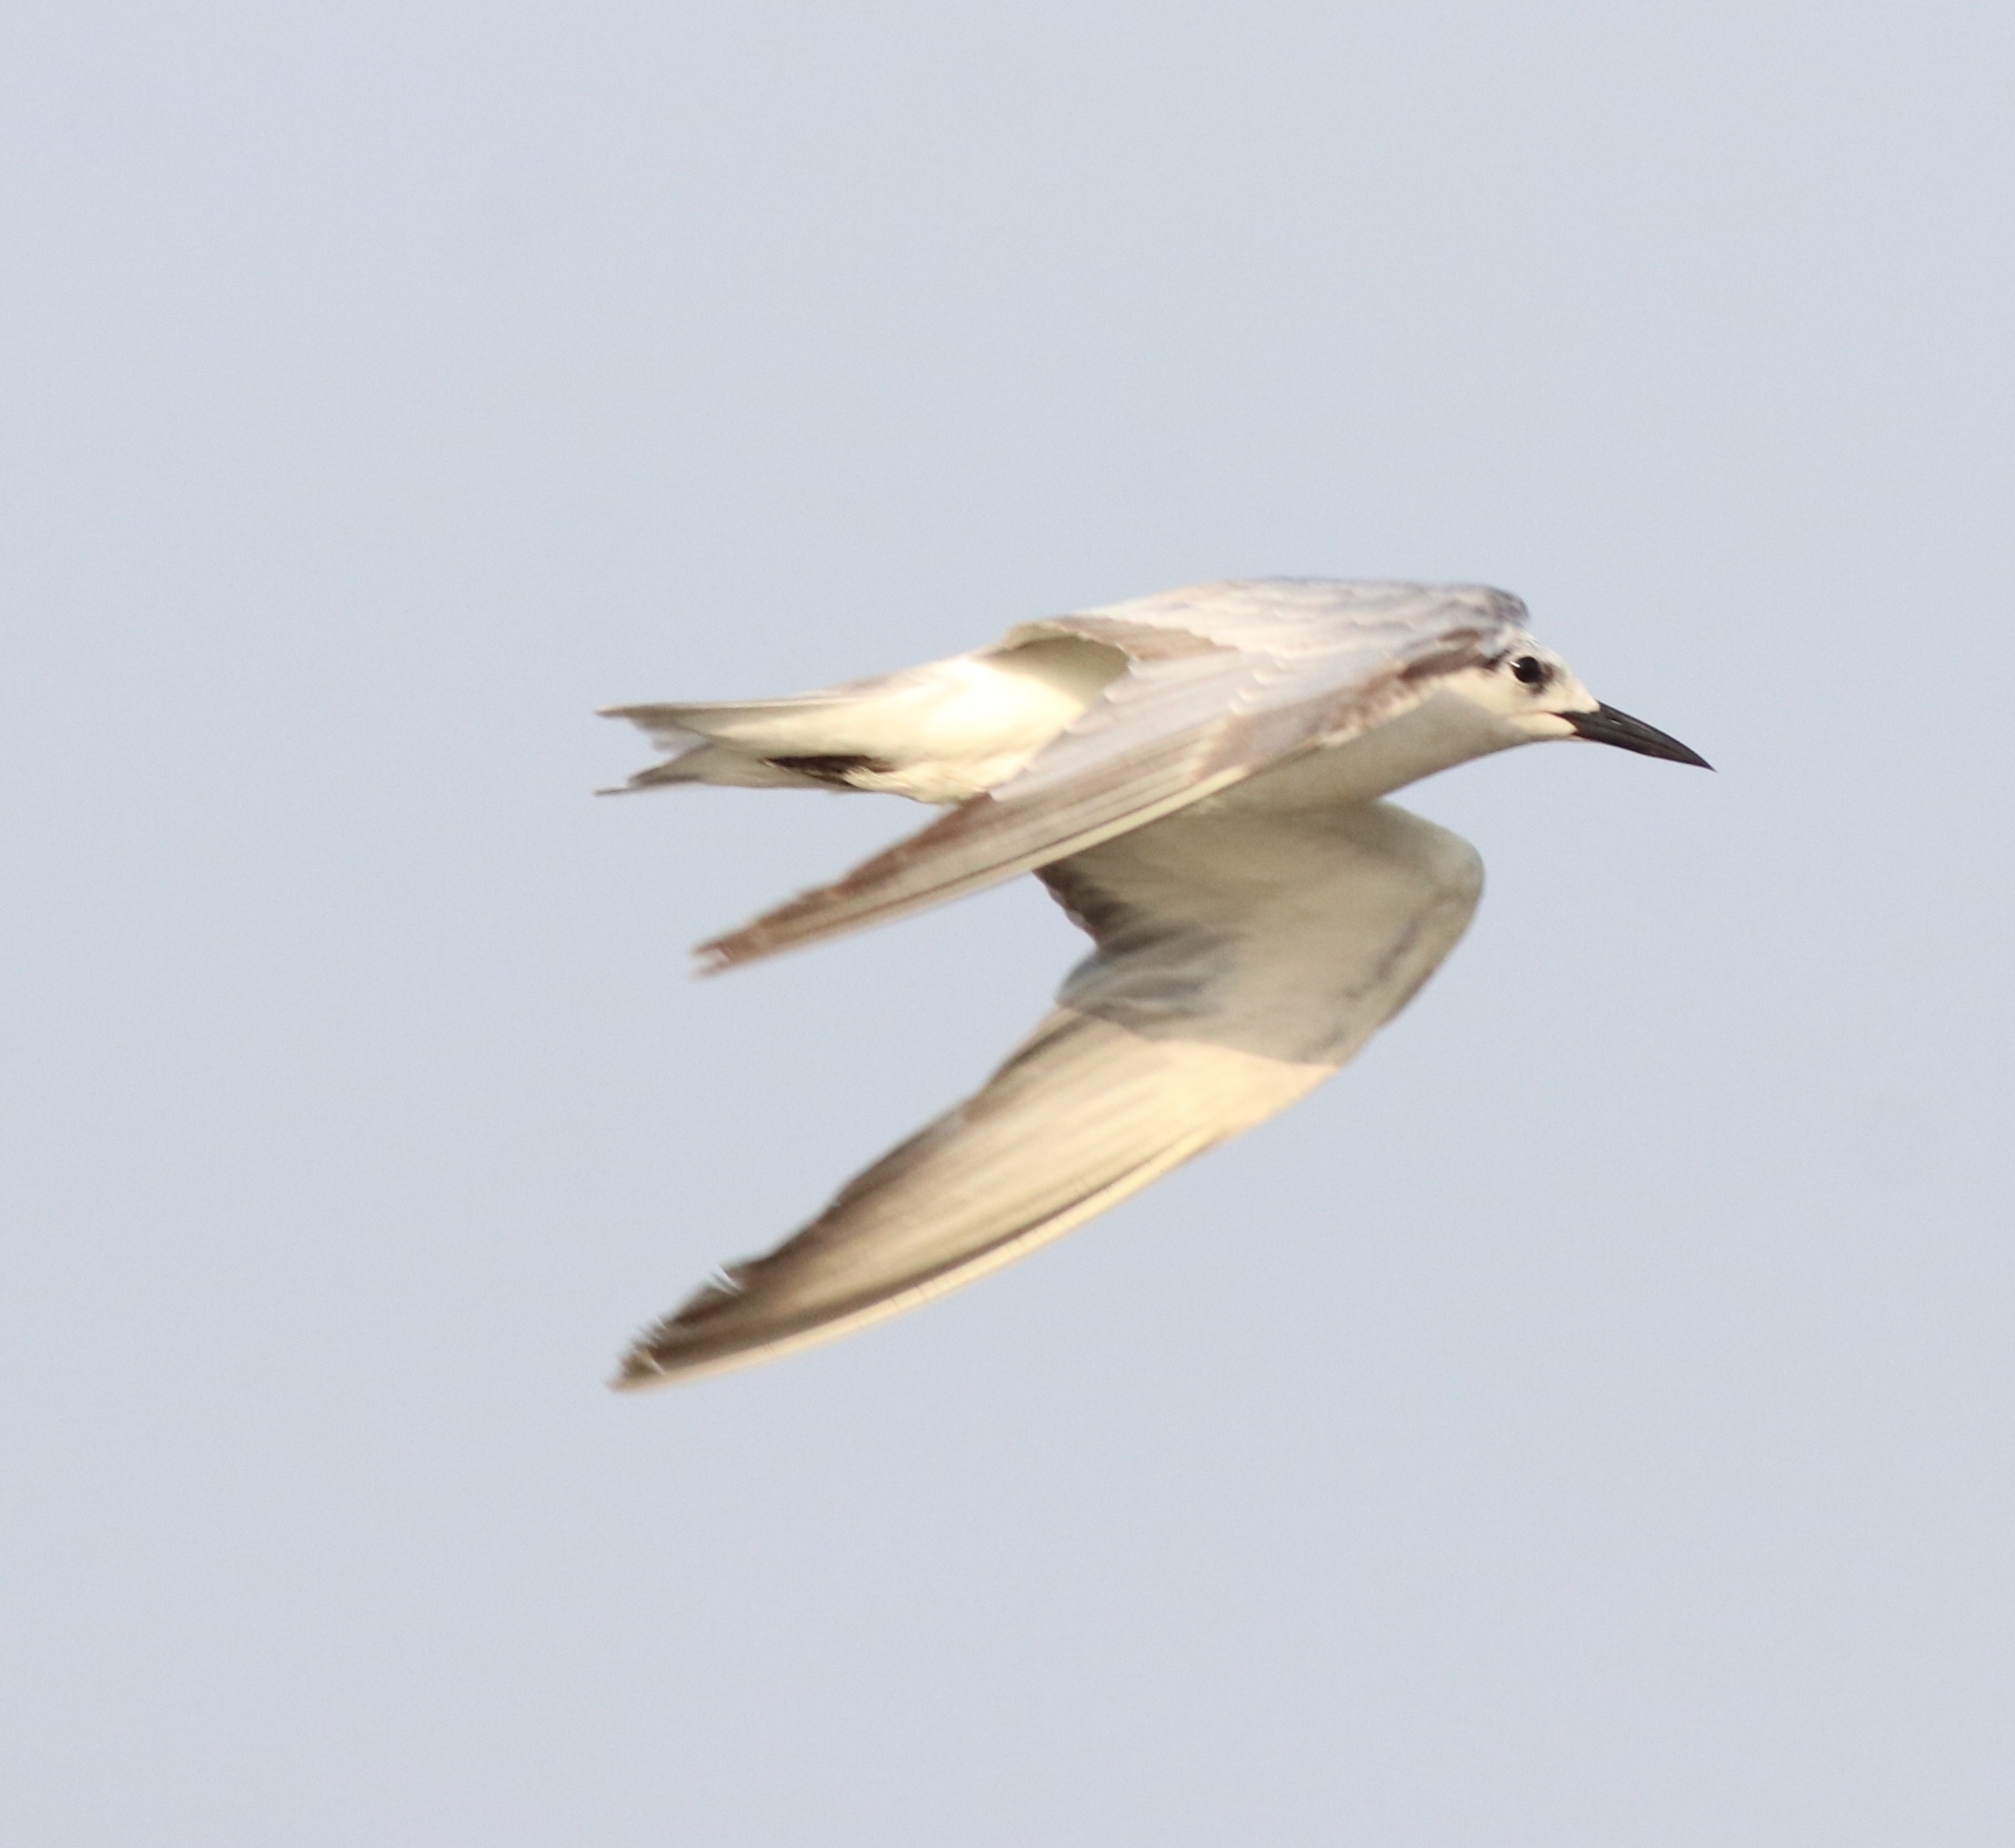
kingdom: Animalia
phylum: Chordata
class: Aves
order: Charadriiformes
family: Laridae
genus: Chlidonias
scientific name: Chlidonias hybrida
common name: Whiskered tern
